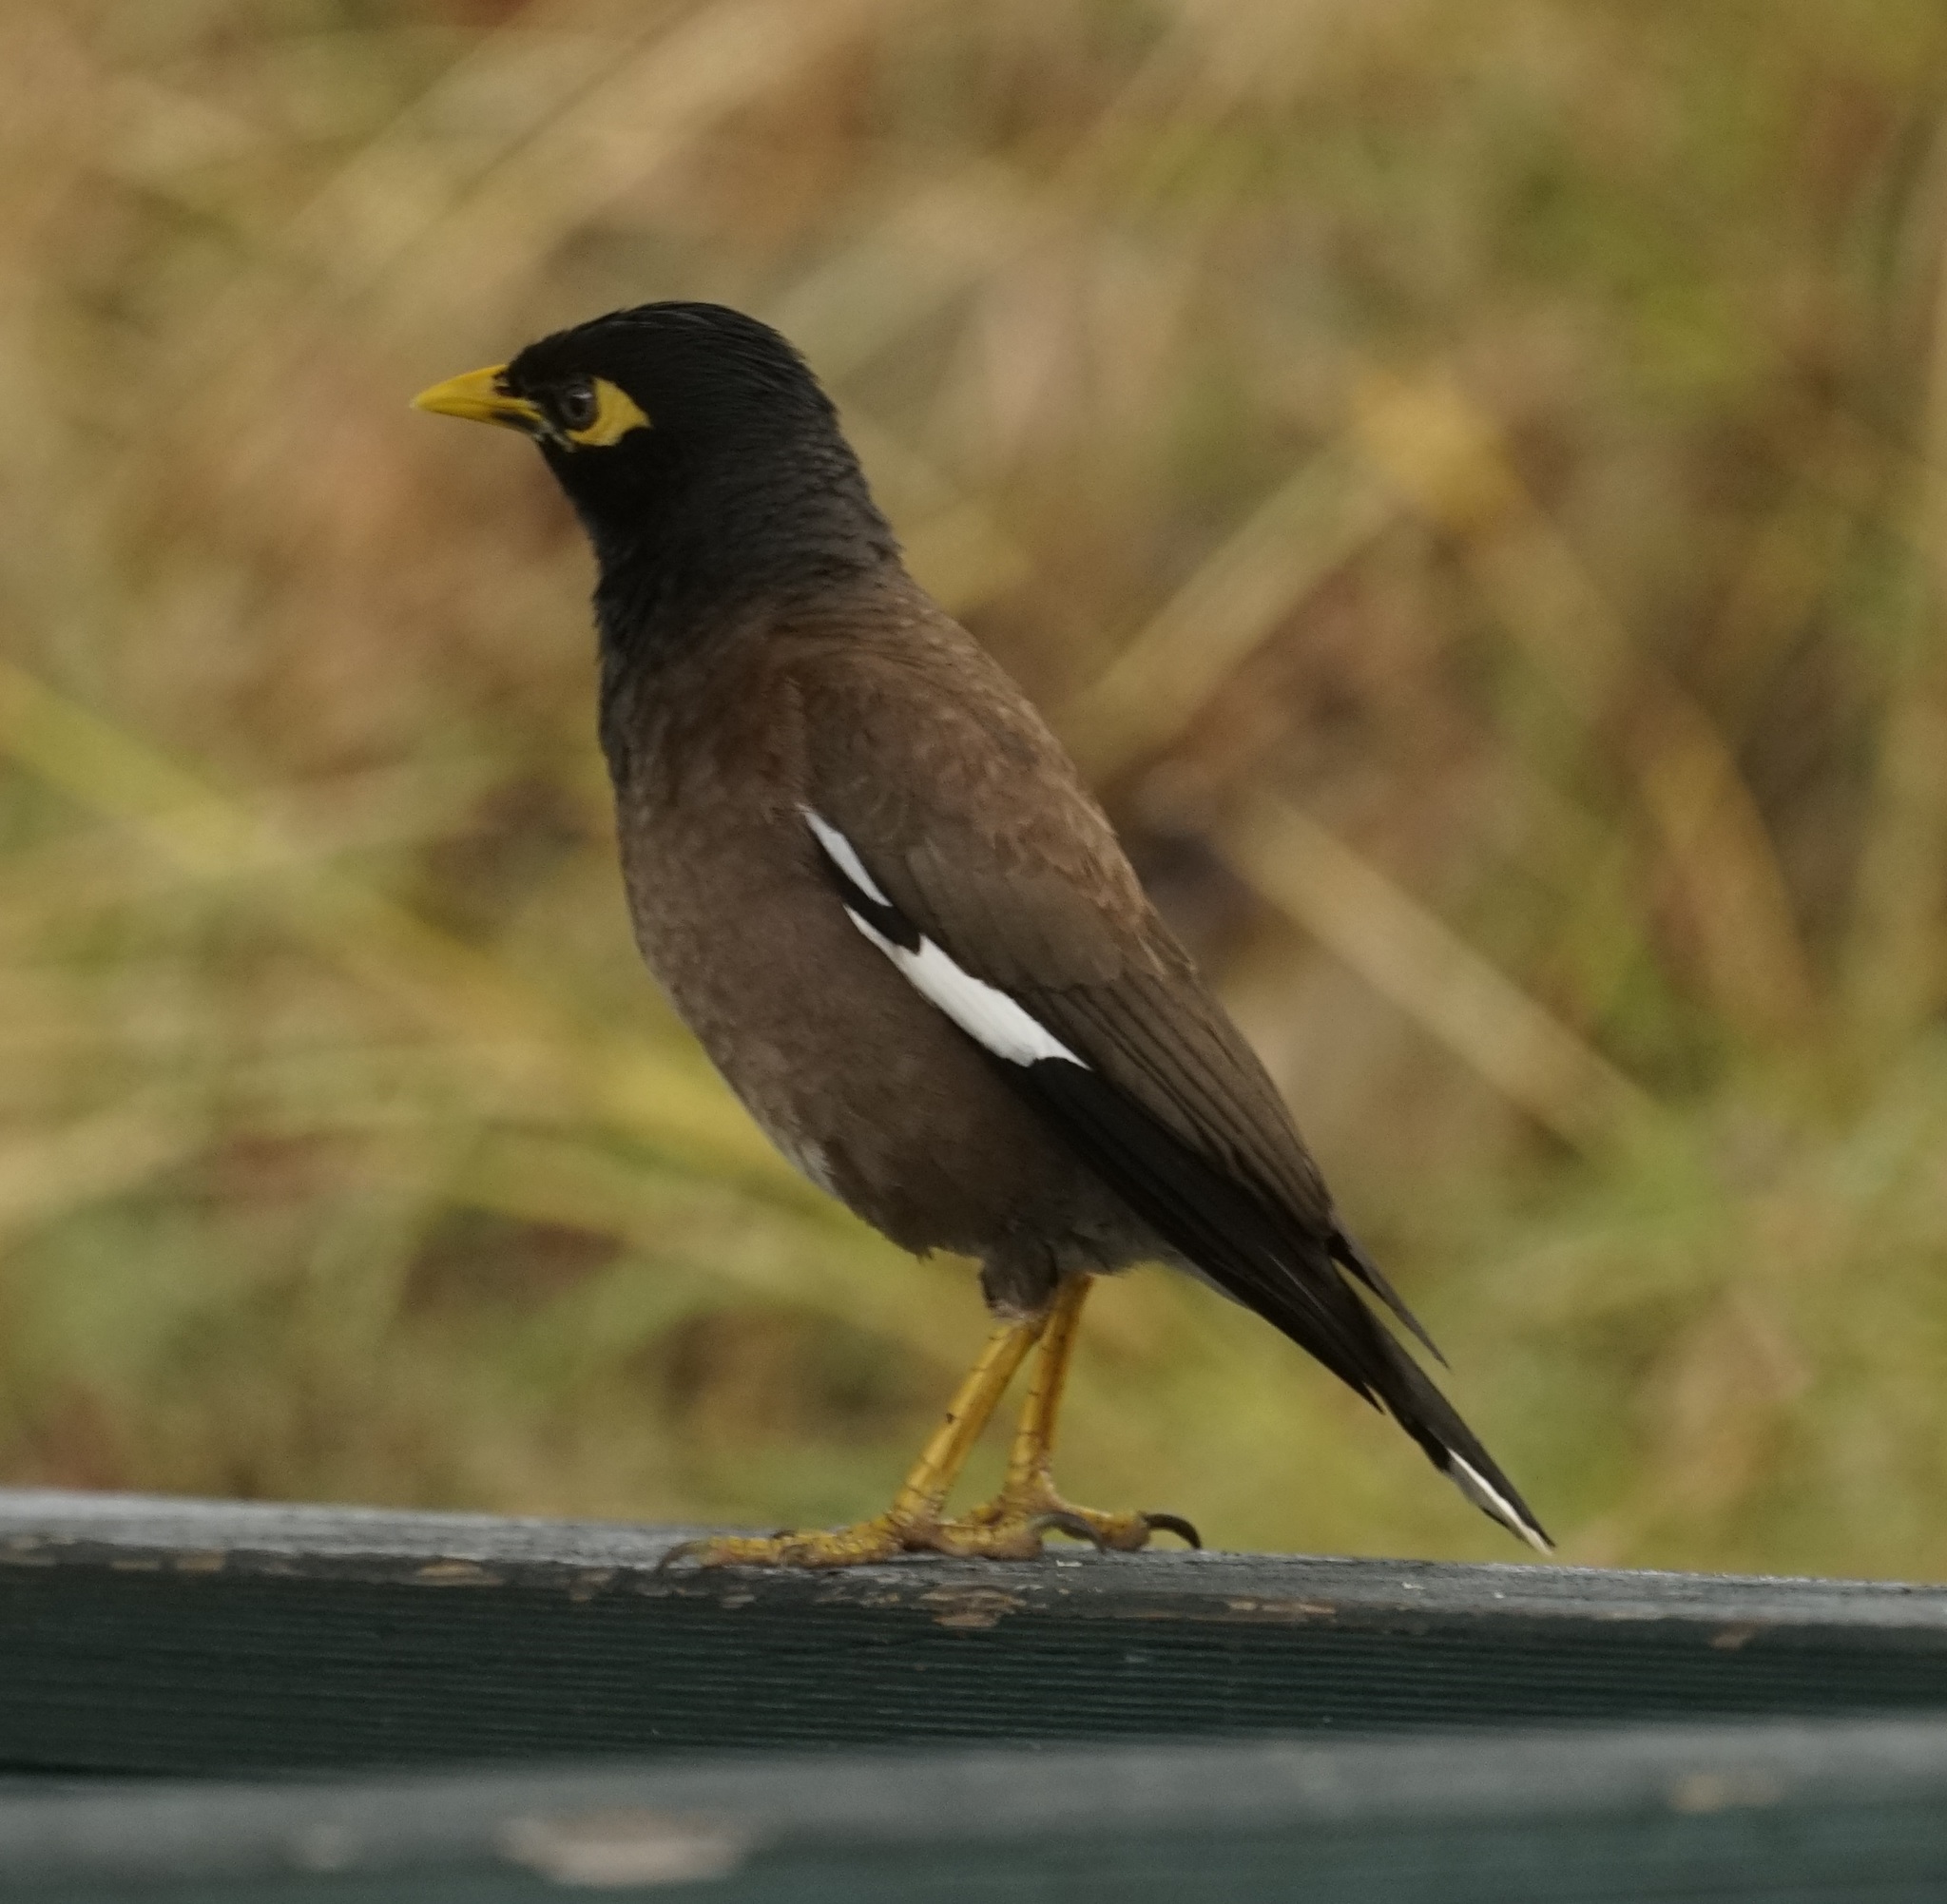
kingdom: Animalia
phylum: Chordata
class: Aves
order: Passeriformes
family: Sturnidae
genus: Acridotheres
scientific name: Acridotheres tristis
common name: Common myna
